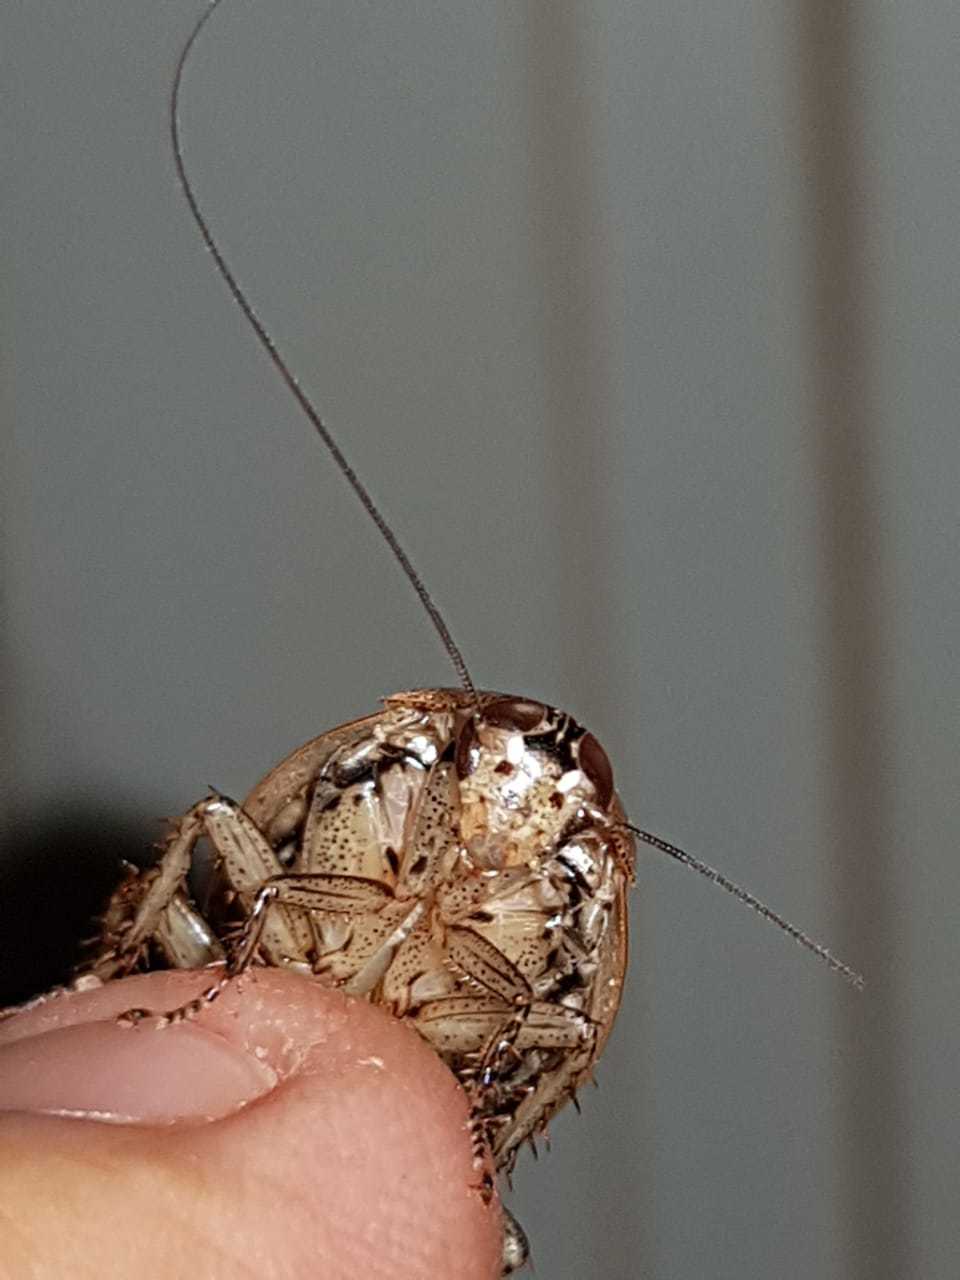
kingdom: Animalia
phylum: Arthropoda
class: Insecta
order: Blattodea
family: Blaberidae
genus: Epilampra
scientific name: Epilampra guianae
